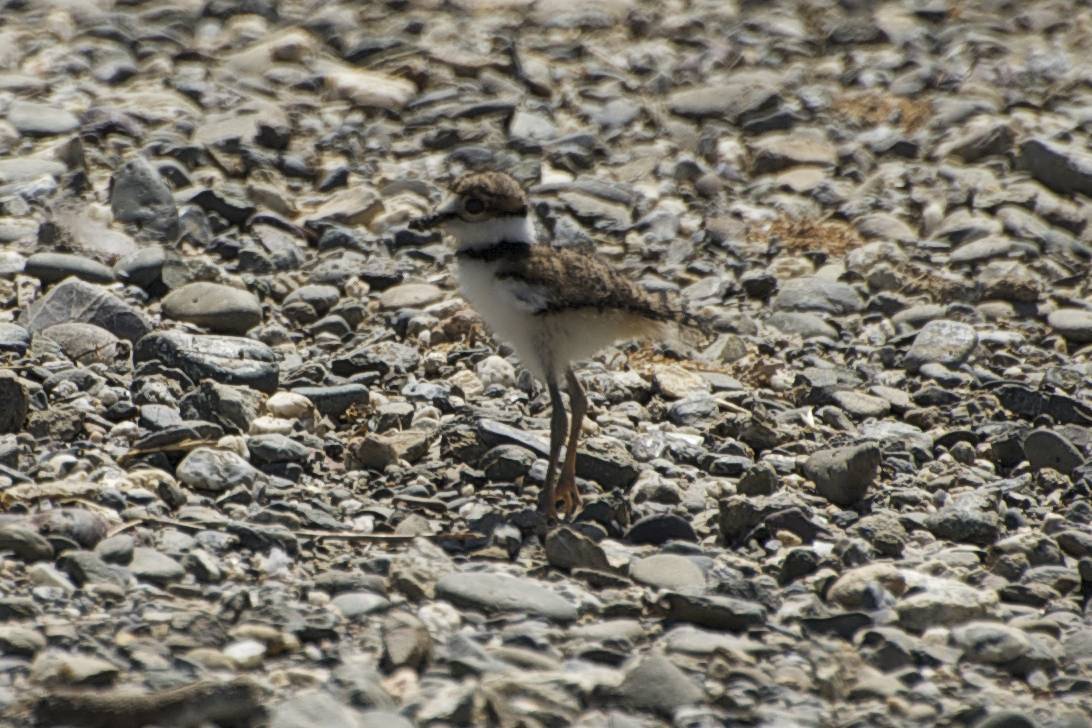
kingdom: Animalia
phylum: Chordata
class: Aves
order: Charadriiformes
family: Charadriidae
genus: Charadrius
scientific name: Charadrius vociferus
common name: Killdeer
